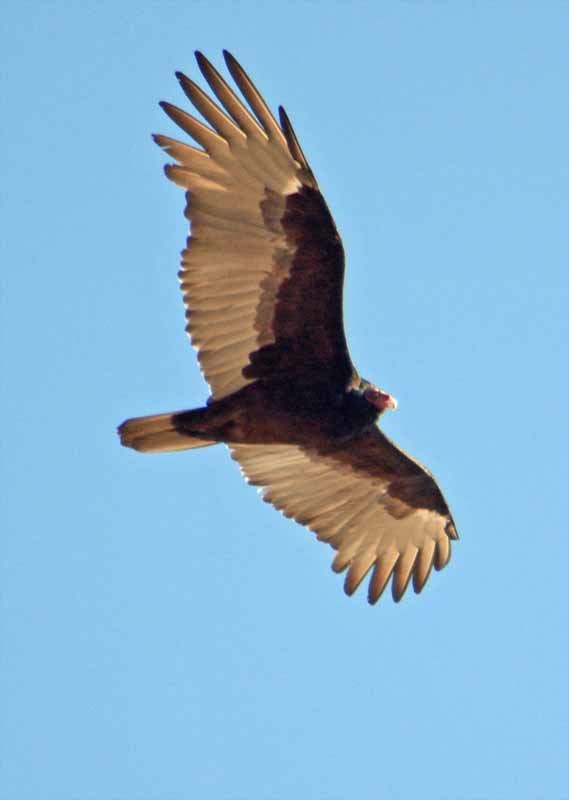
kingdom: Animalia
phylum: Chordata
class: Aves
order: Accipitriformes
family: Cathartidae
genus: Cathartes
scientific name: Cathartes aura
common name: Turkey vulture
